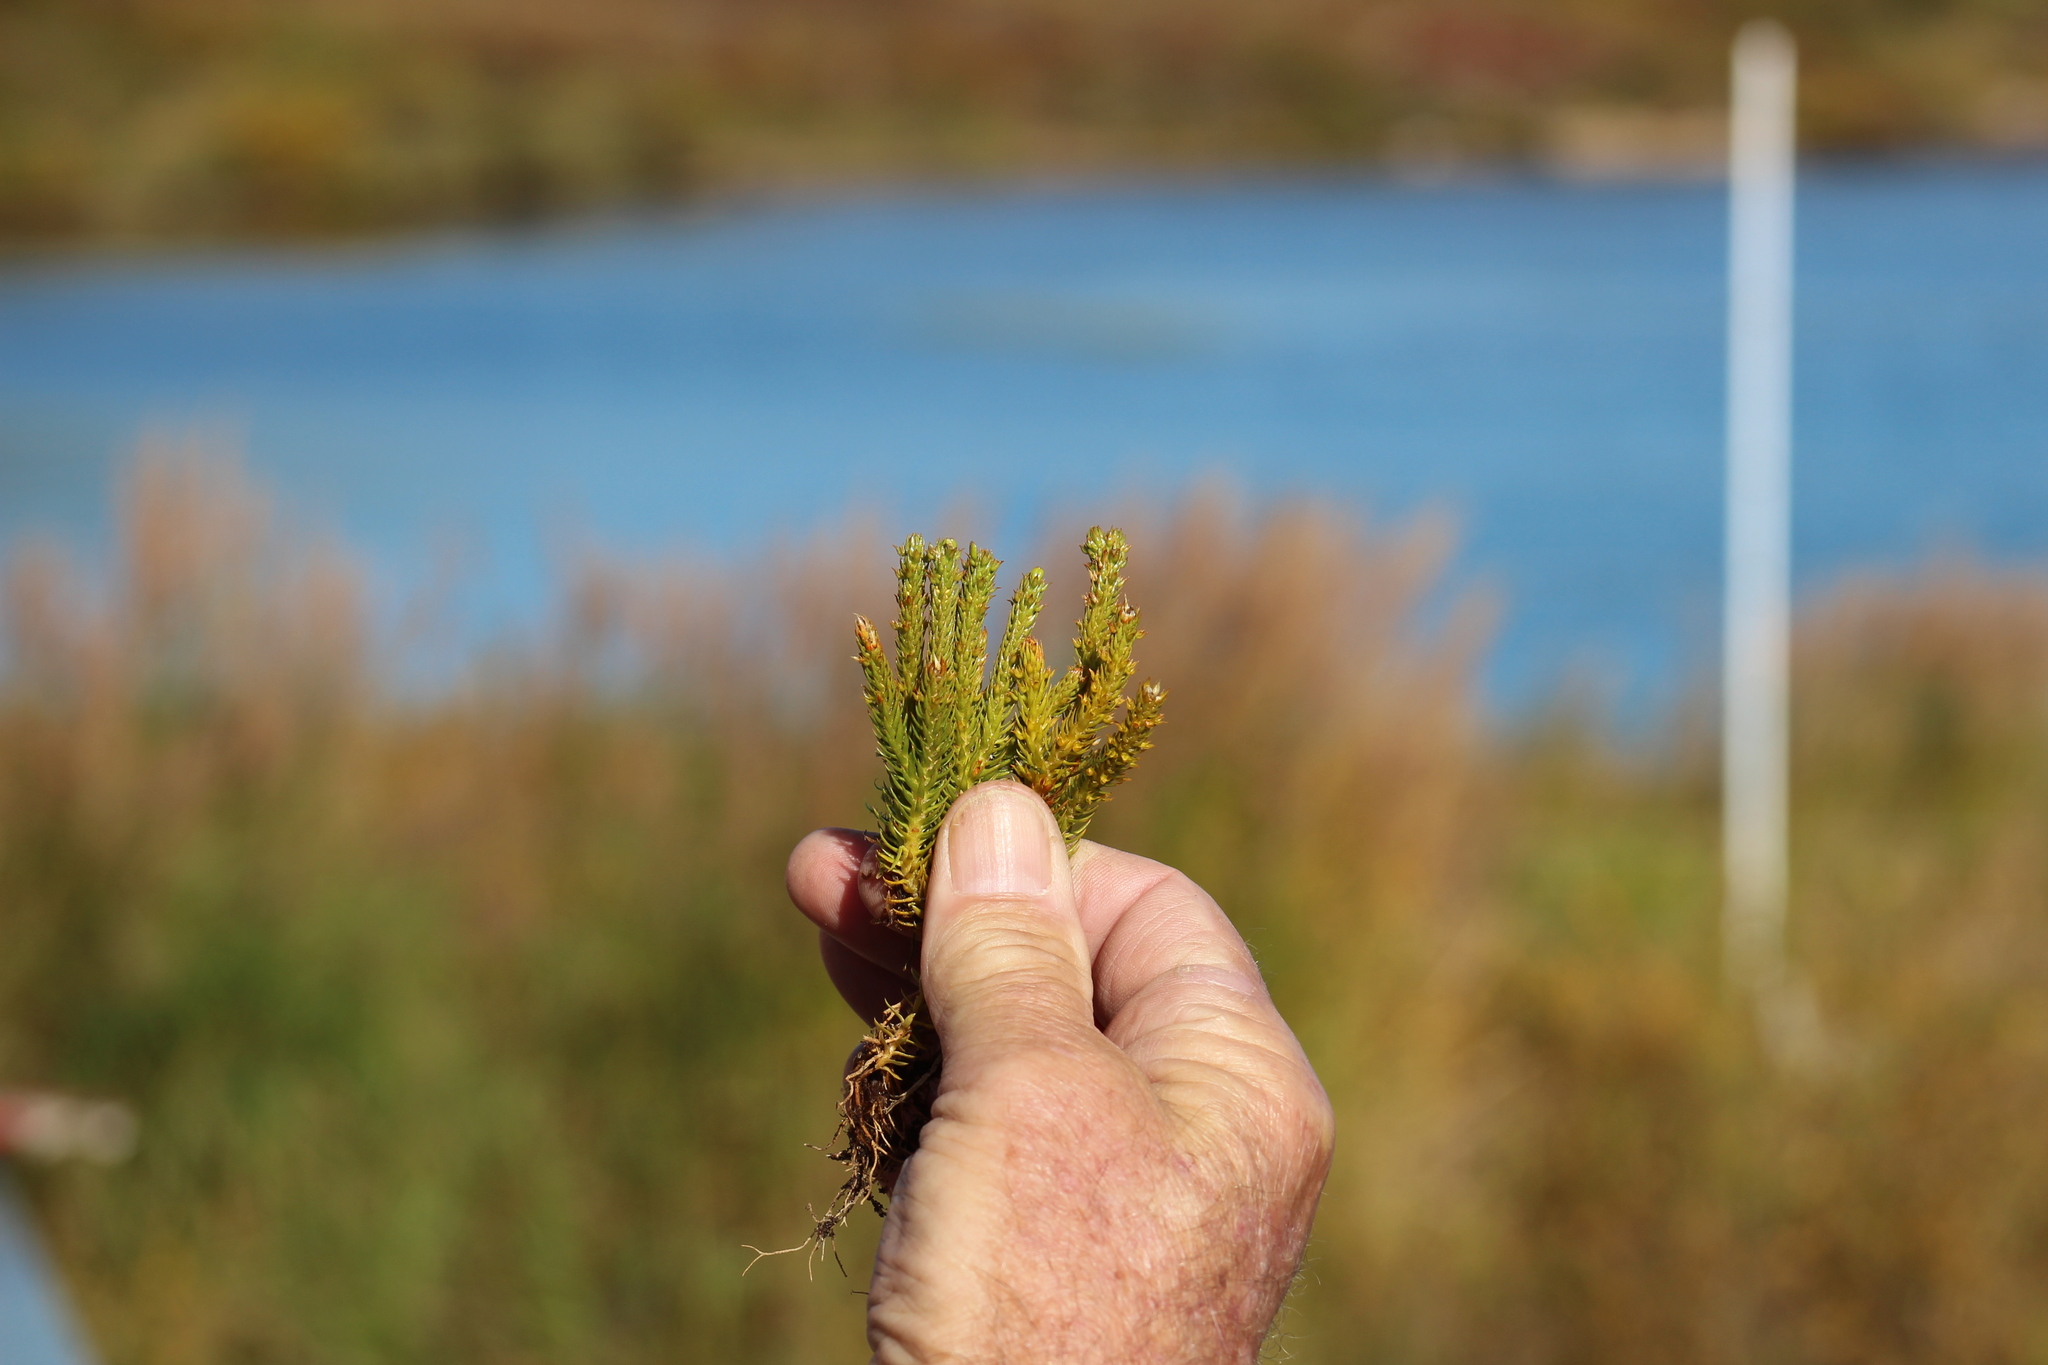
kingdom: Plantae
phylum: Tracheophyta
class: Lycopodiopsida
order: Lycopodiales
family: Lycopodiaceae
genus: Huperzia
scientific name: Huperzia continentalis
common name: Continental firmoss
